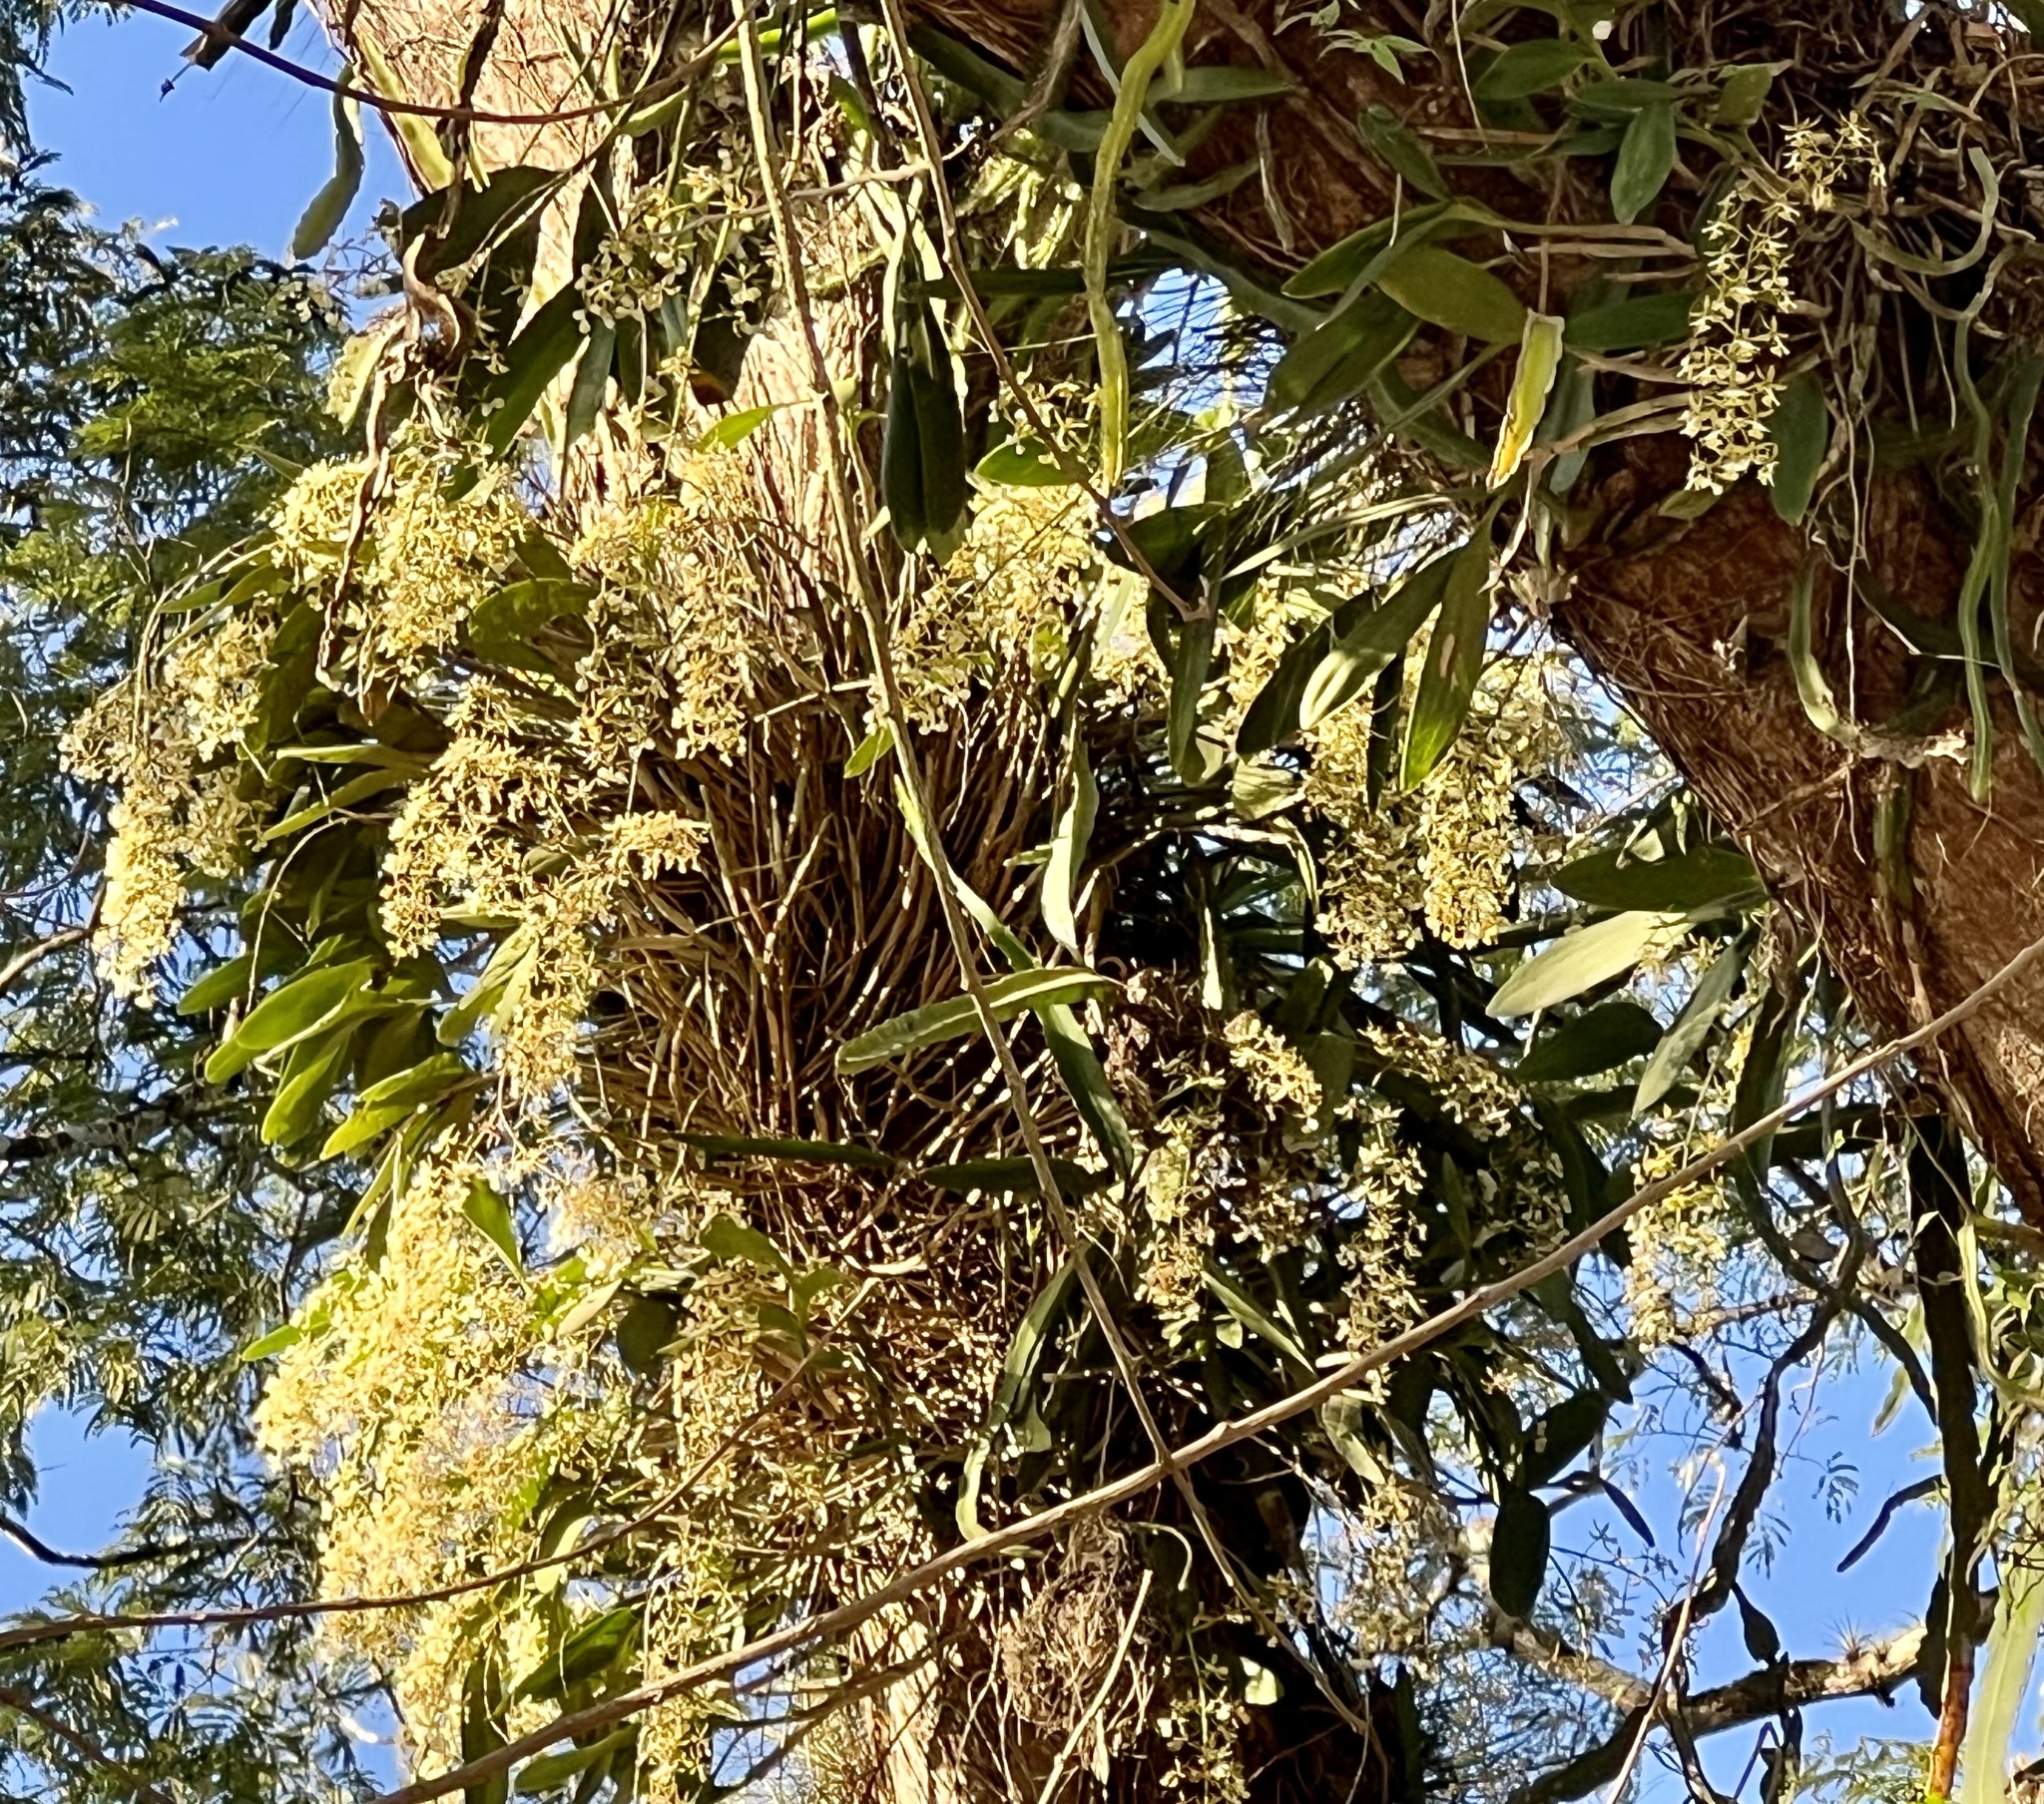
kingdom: Plantae
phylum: Tracheophyta
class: Liliopsida
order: Asparagales
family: Orchidaceae
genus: Epidendrum
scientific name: Epidendrum stamfordianum
